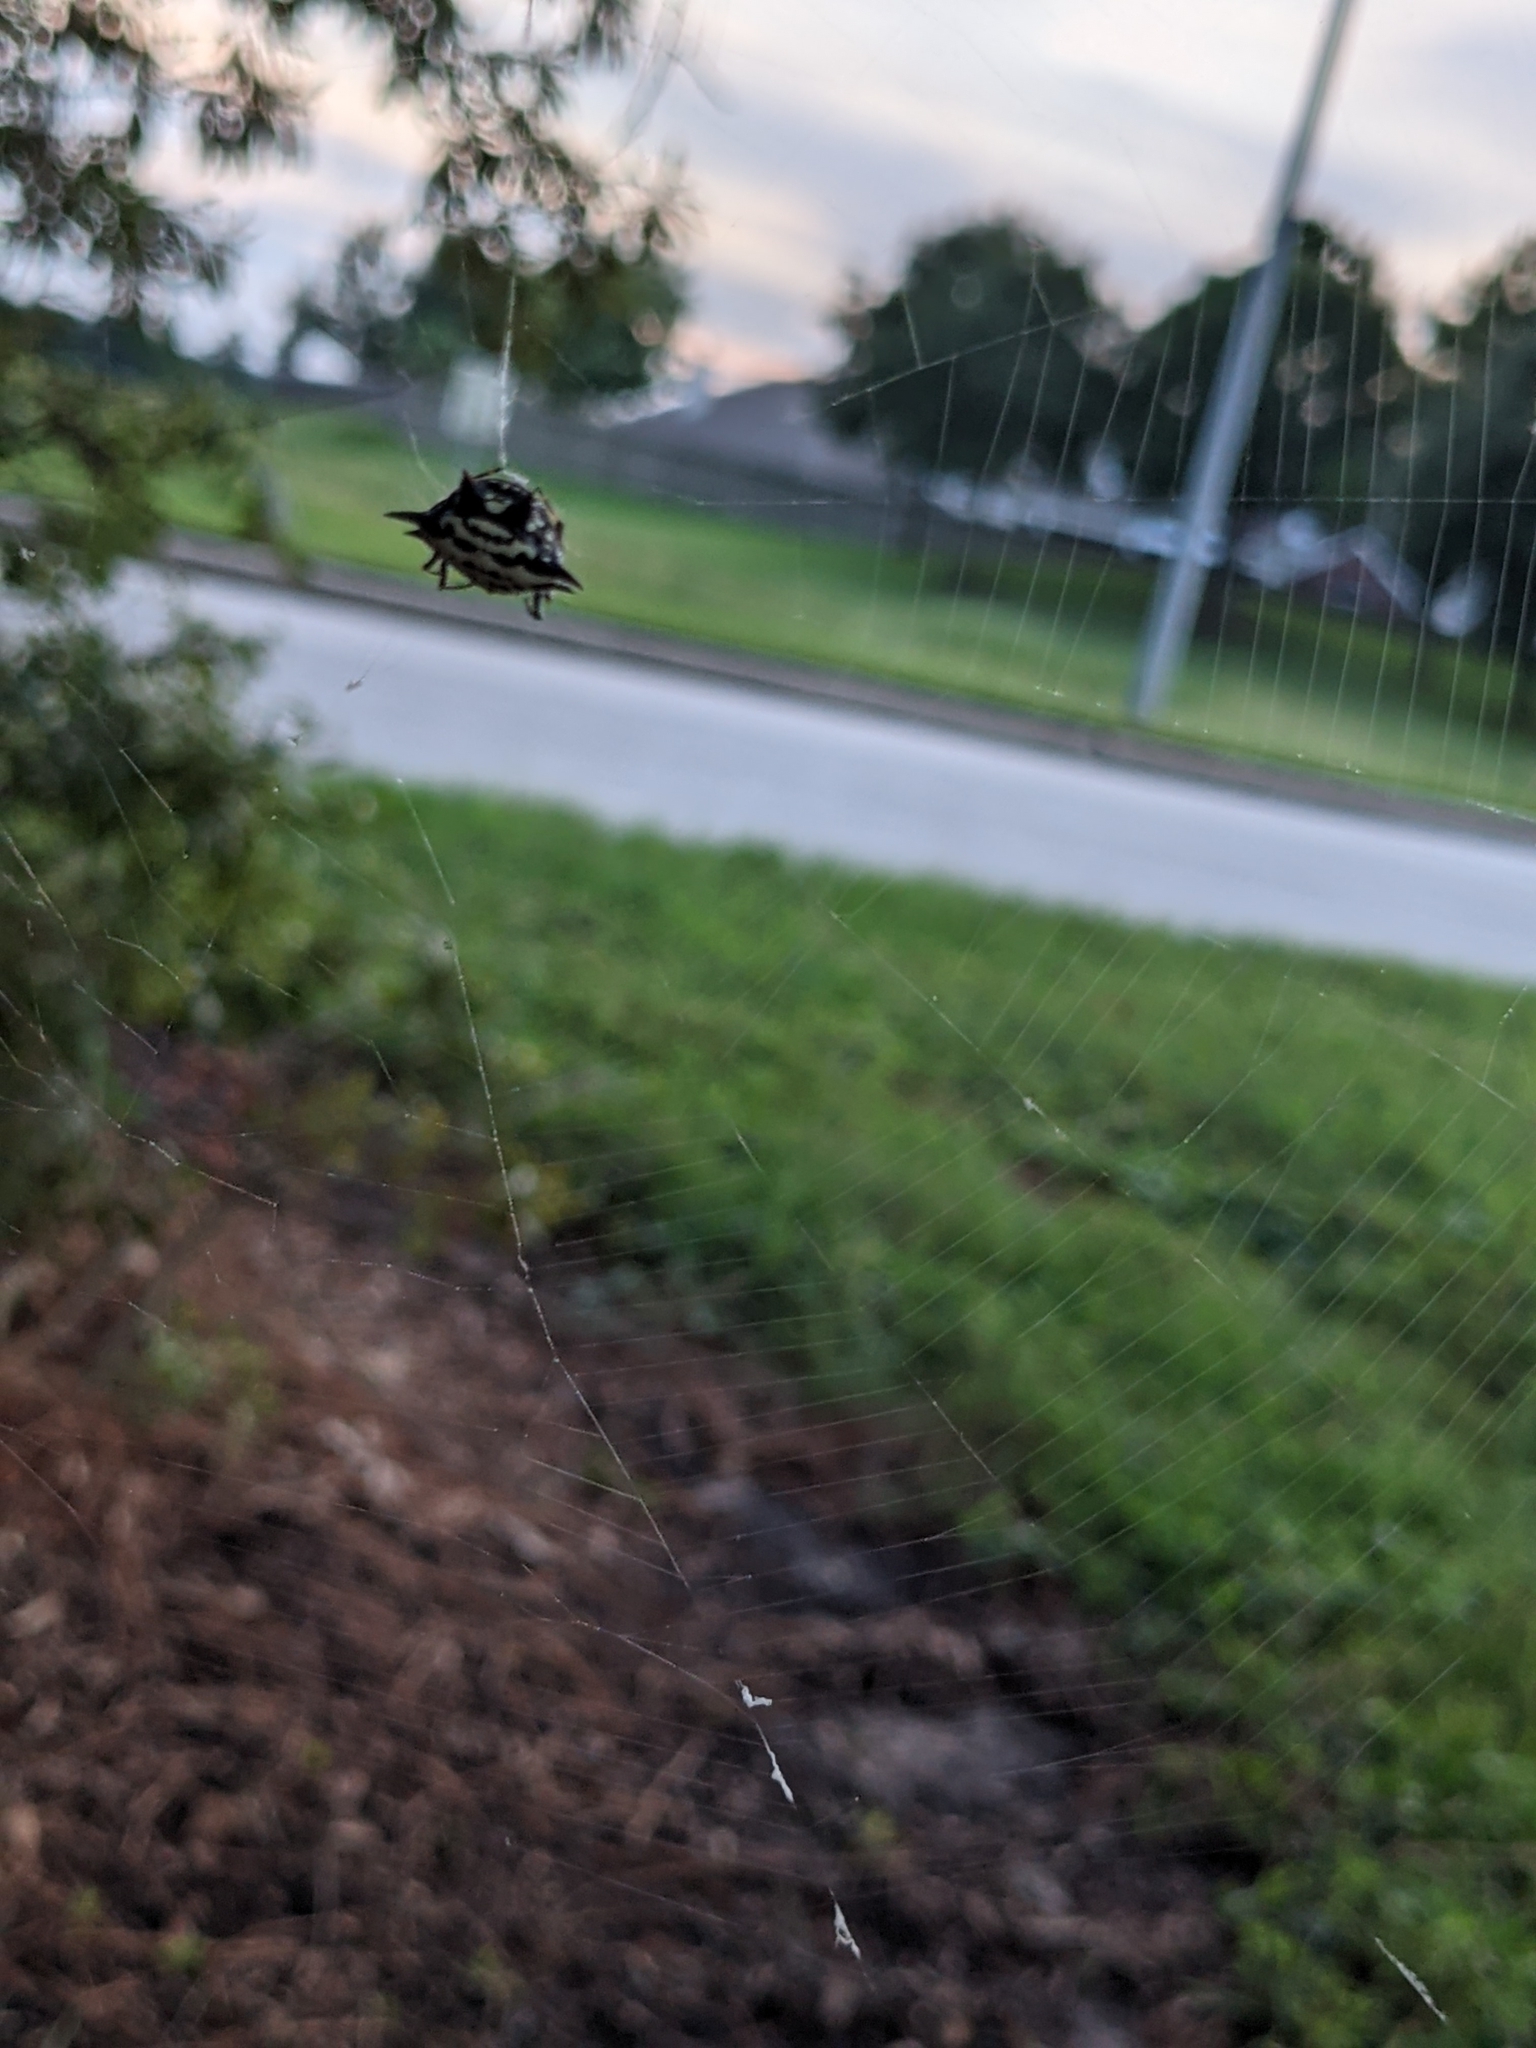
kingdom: Animalia
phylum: Arthropoda
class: Arachnida
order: Araneae
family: Araneidae
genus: Gasteracantha
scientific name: Gasteracantha cancriformis
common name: Orb weavers
